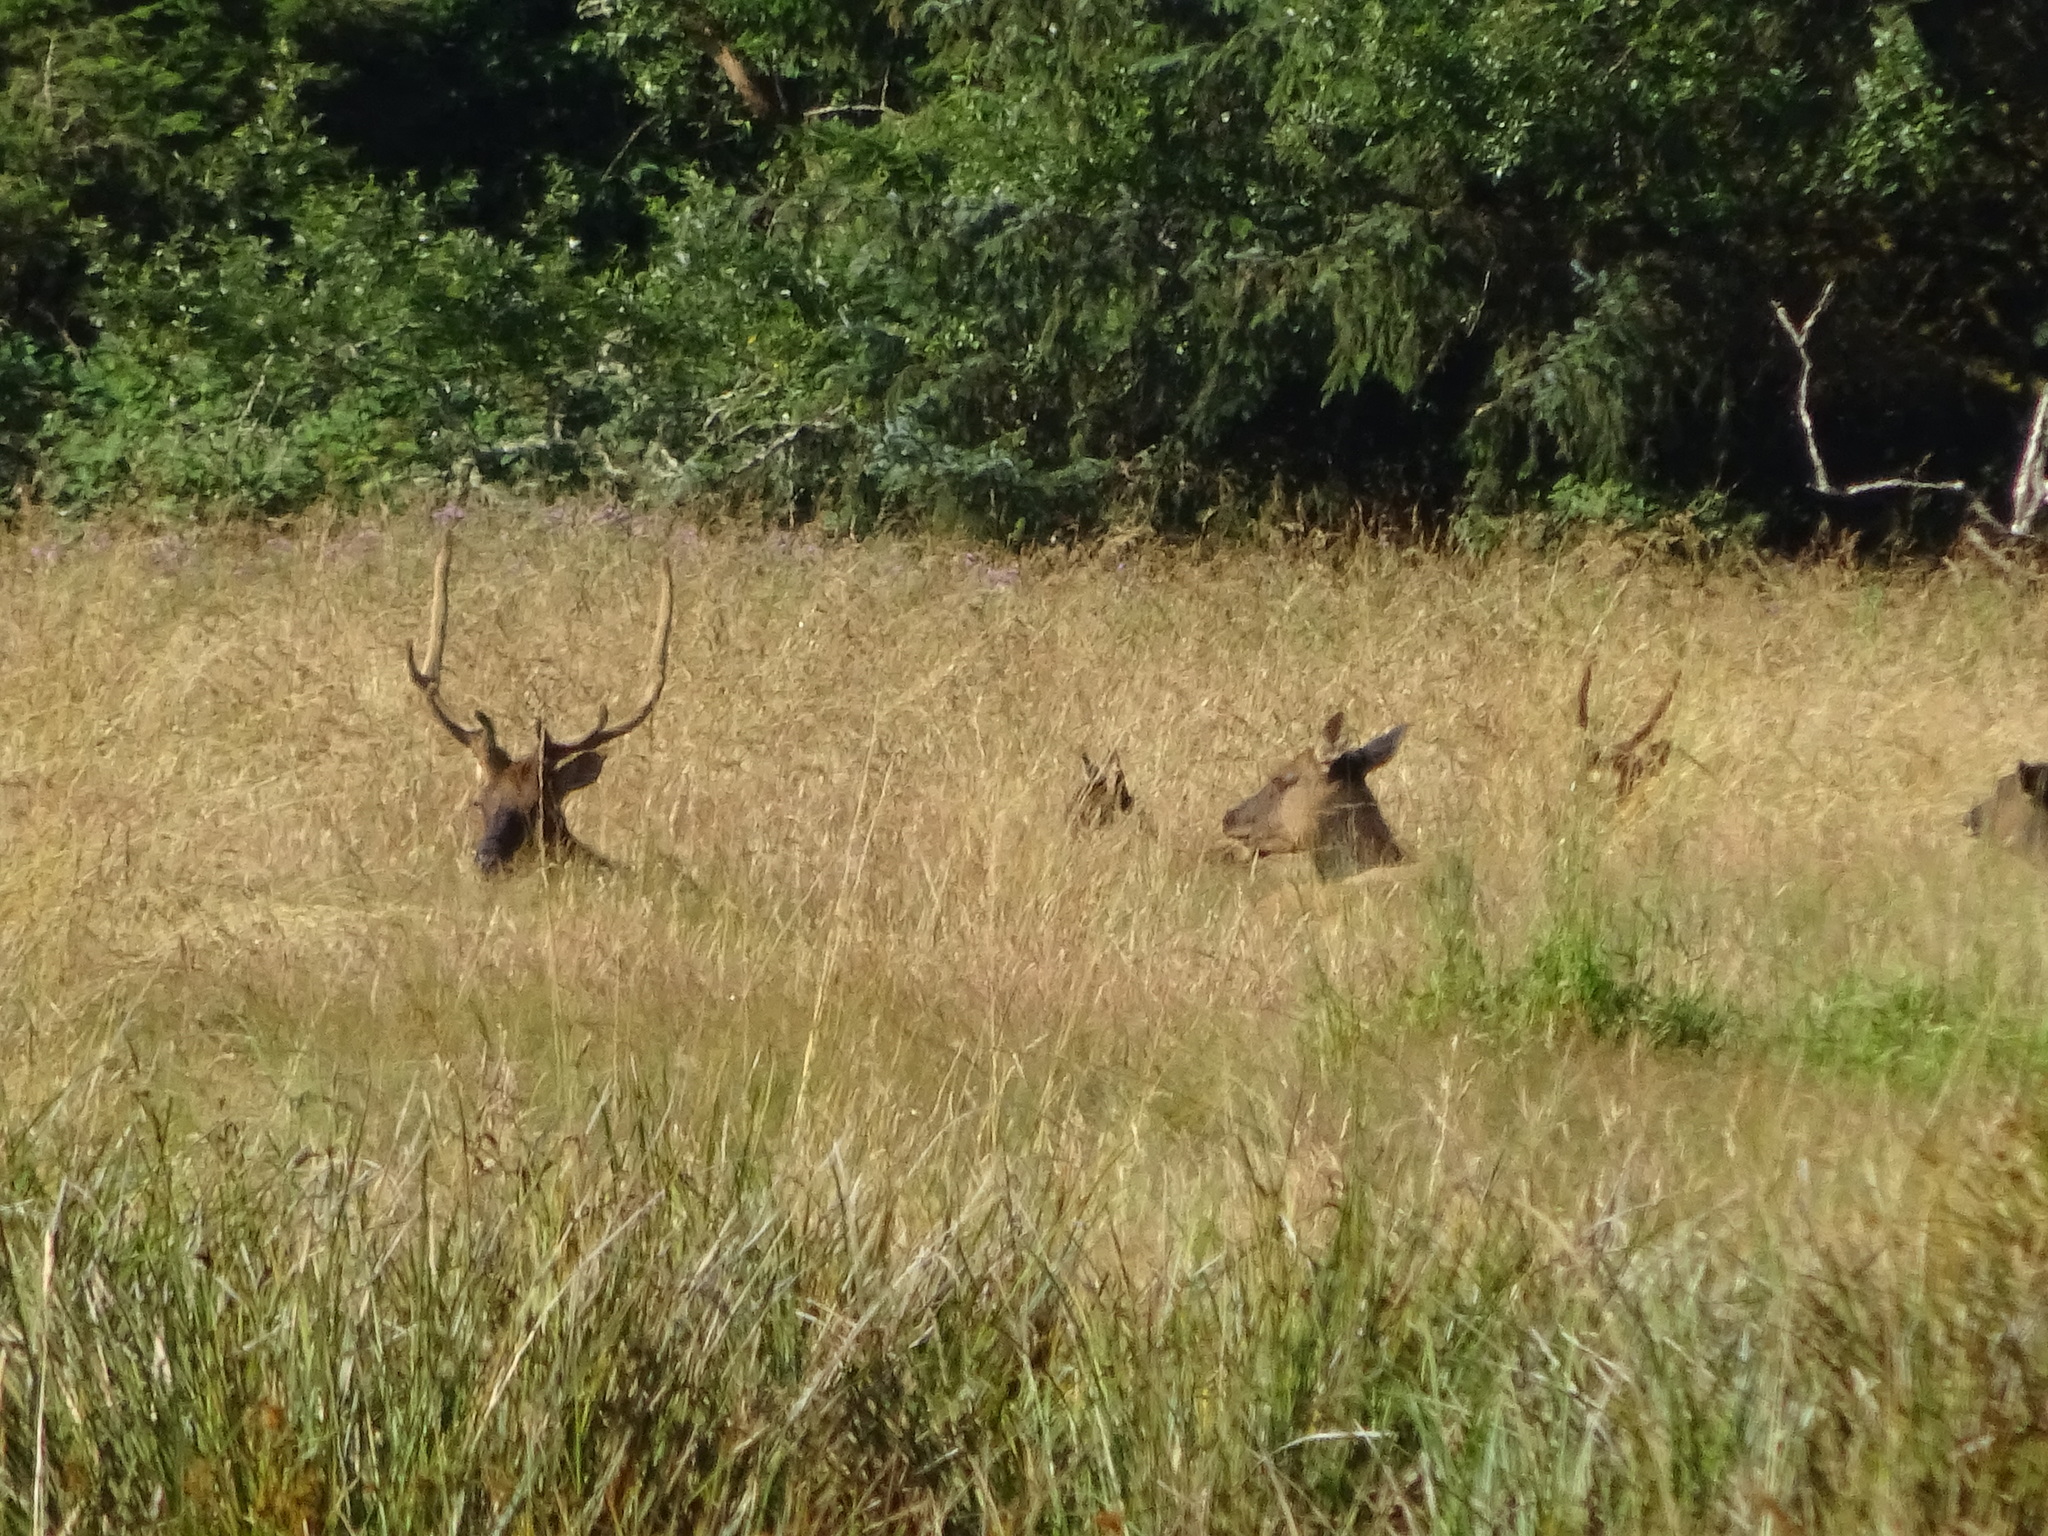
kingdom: Animalia
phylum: Chordata
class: Mammalia
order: Artiodactyla
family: Cervidae
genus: Cervus
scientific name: Cervus elaphus
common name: Red deer
